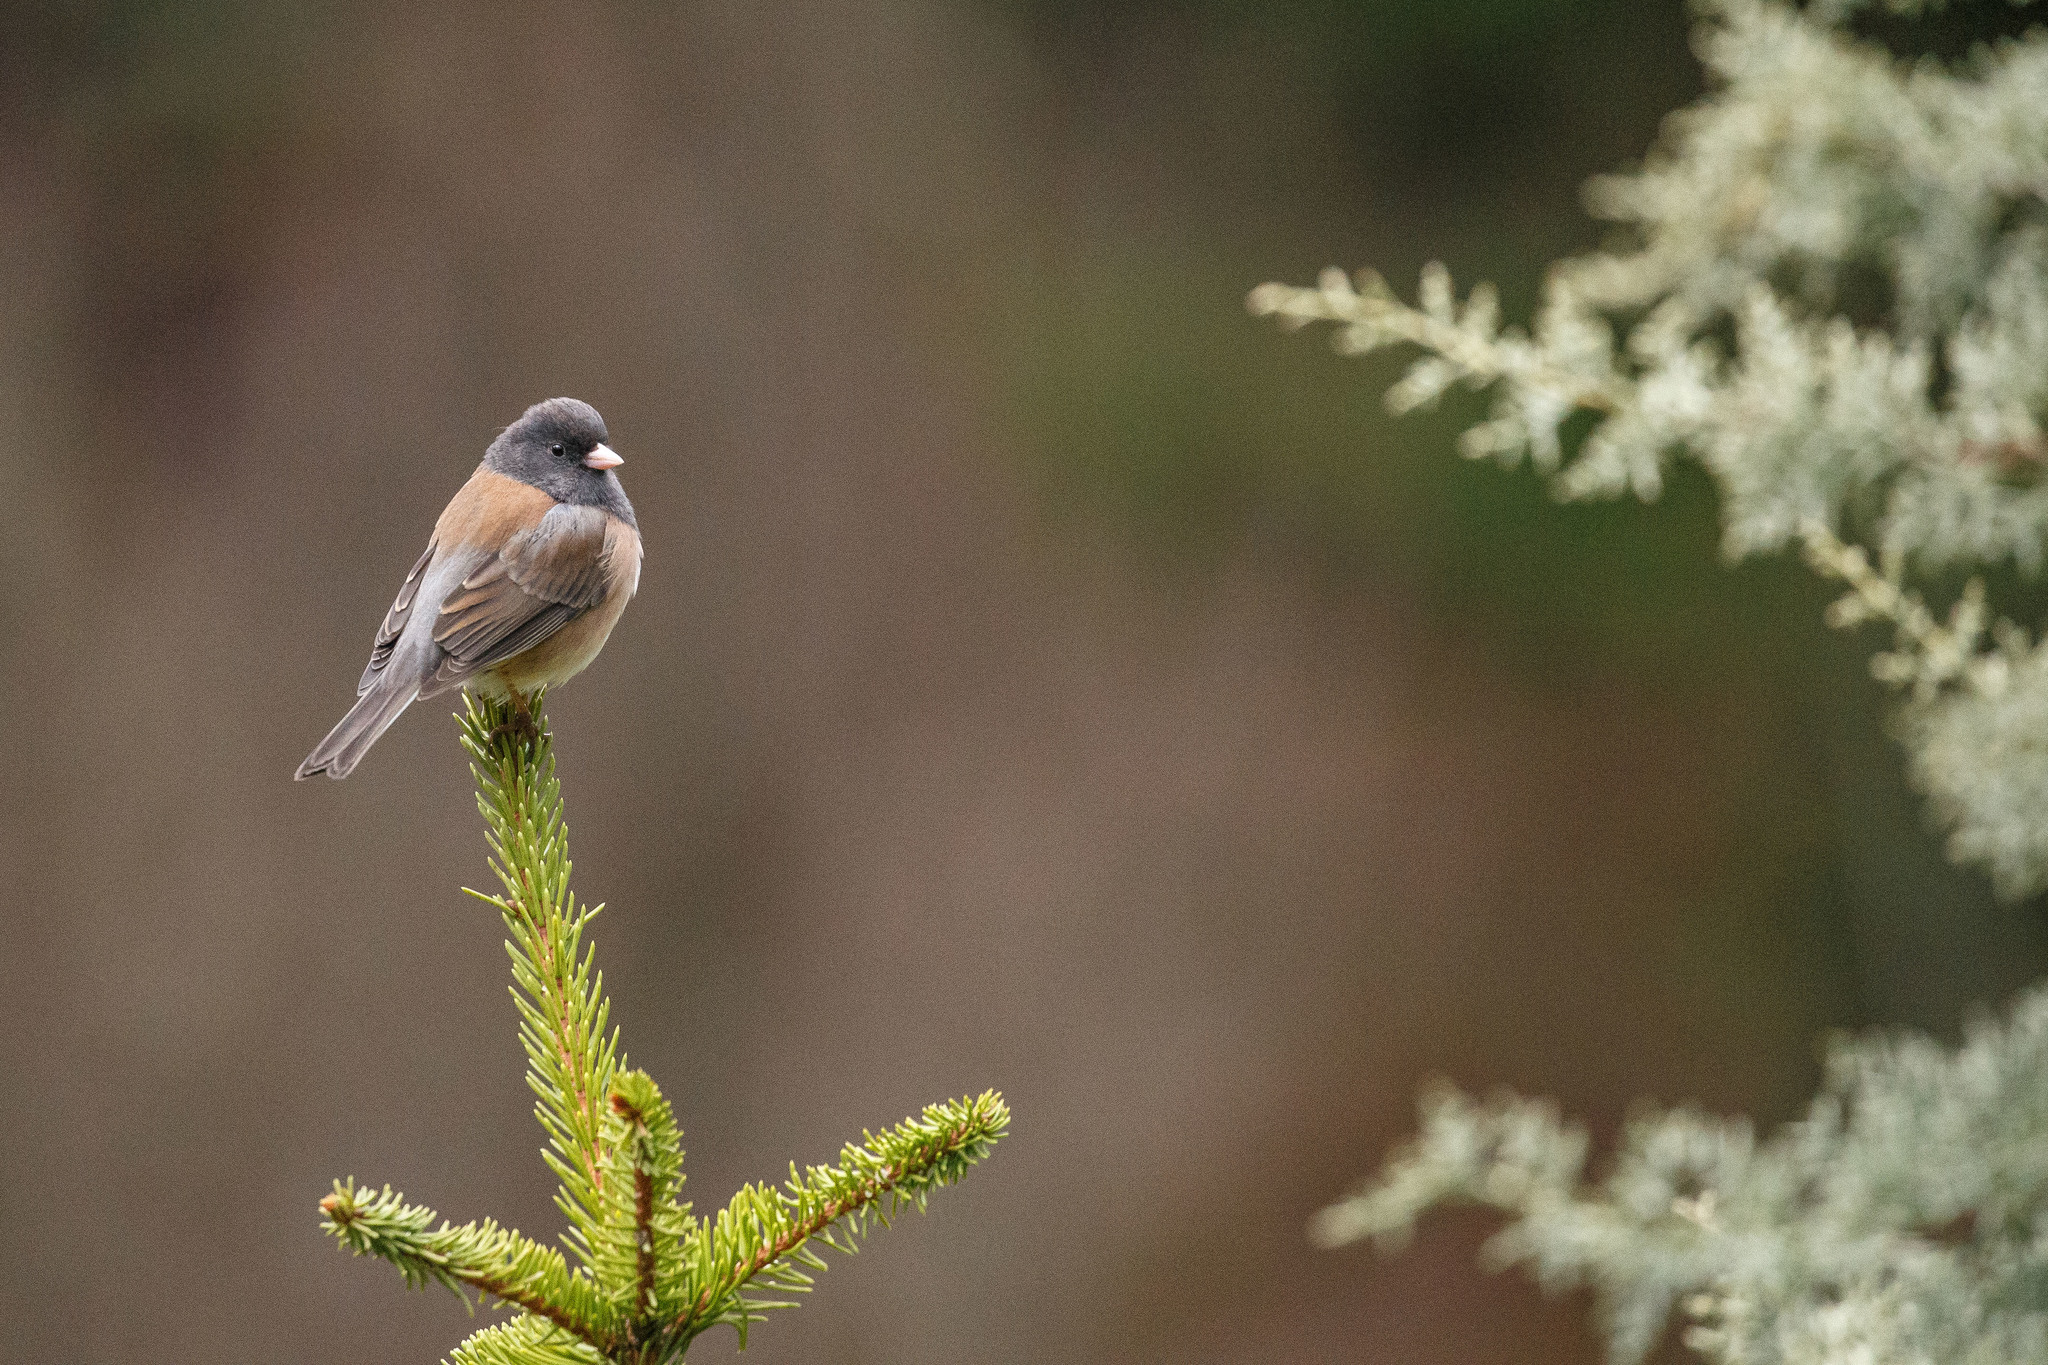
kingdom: Animalia
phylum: Chordata
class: Aves
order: Passeriformes
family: Passerellidae
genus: Junco
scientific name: Junco hyemalis
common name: Dark-eyed junco
